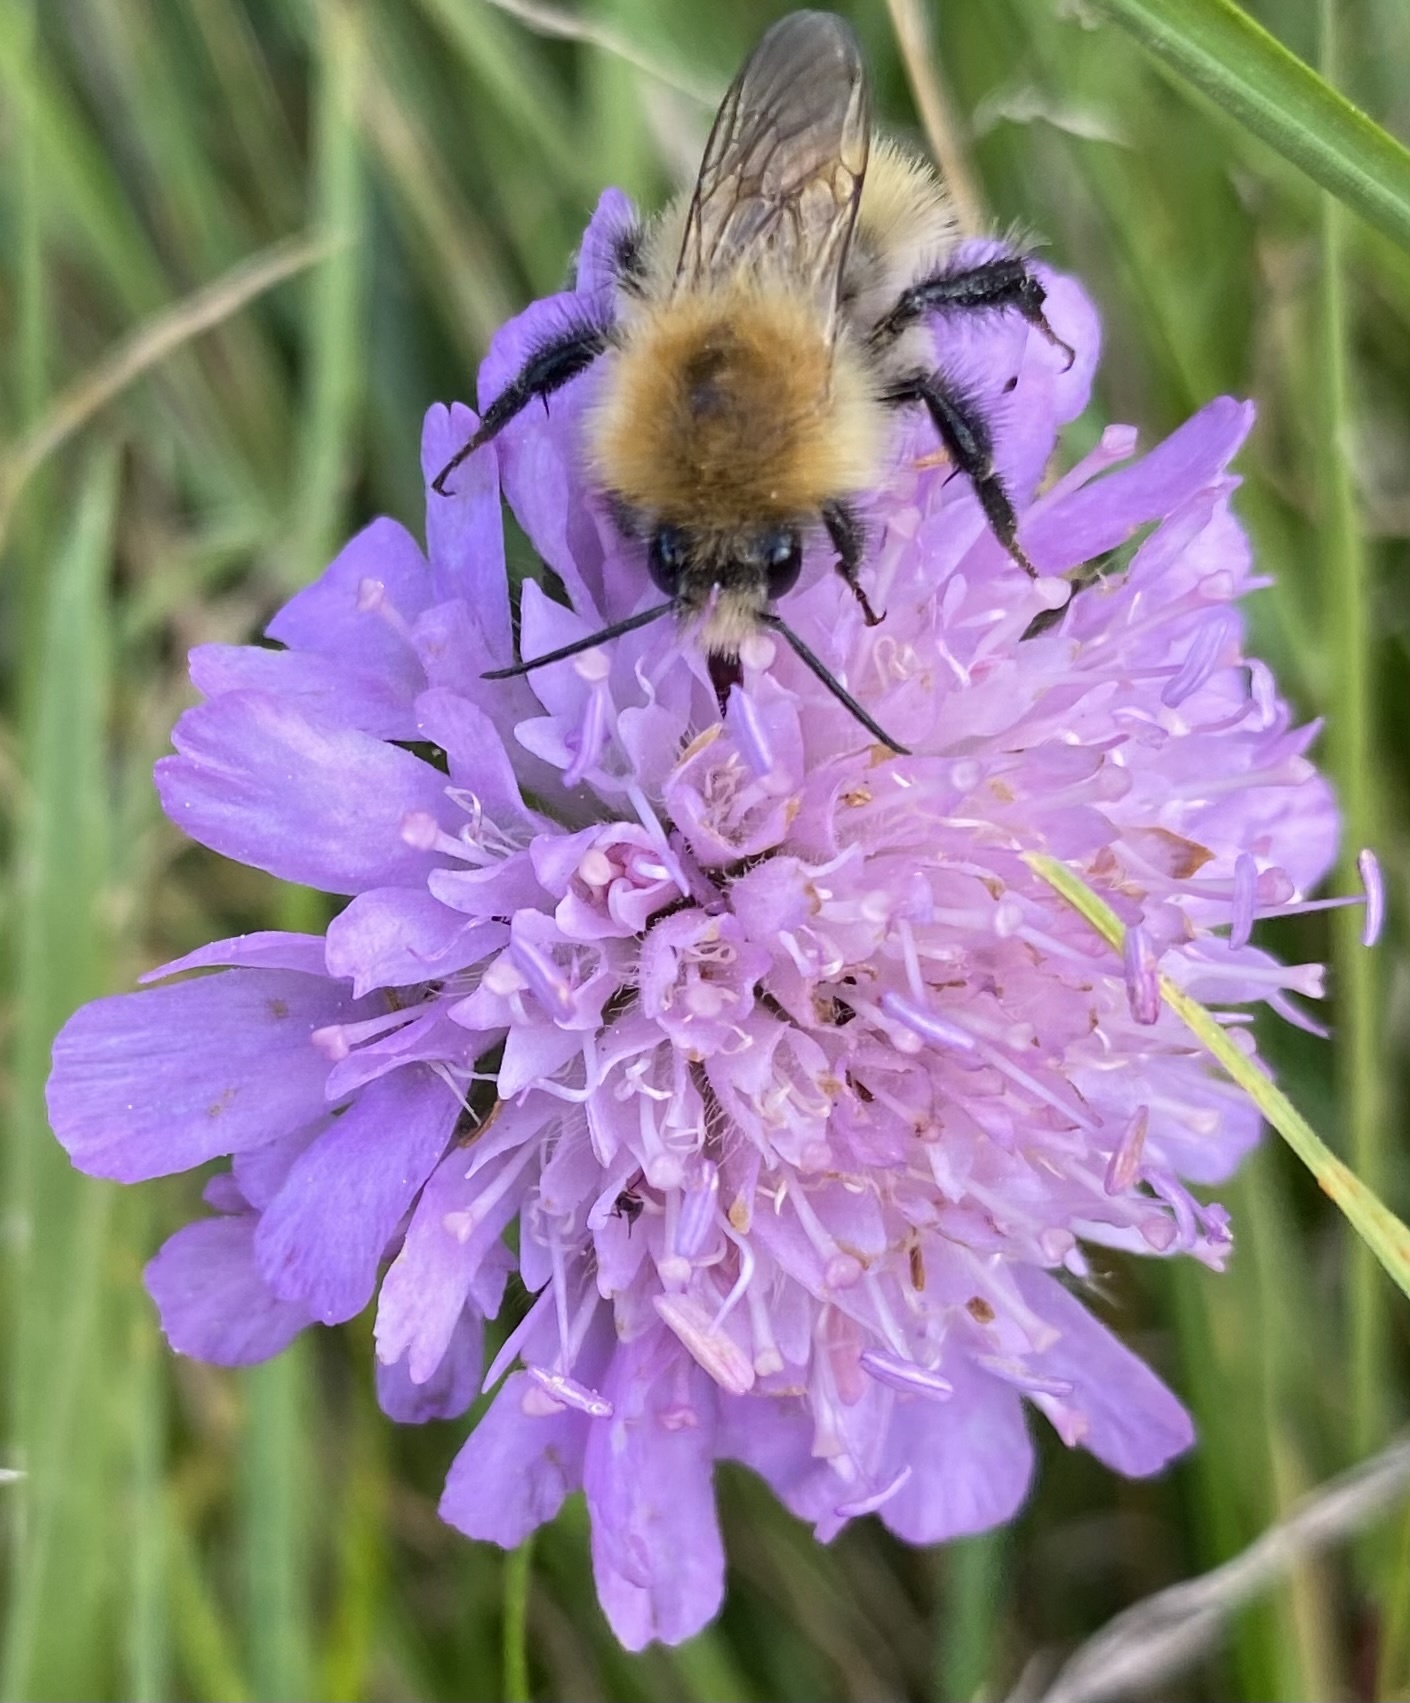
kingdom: Animalia
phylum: Arthropoda
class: Insecta
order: Hymenoptera
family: Apidae
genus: Bombus
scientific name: Bombus pascuorum
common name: Common carder bee
